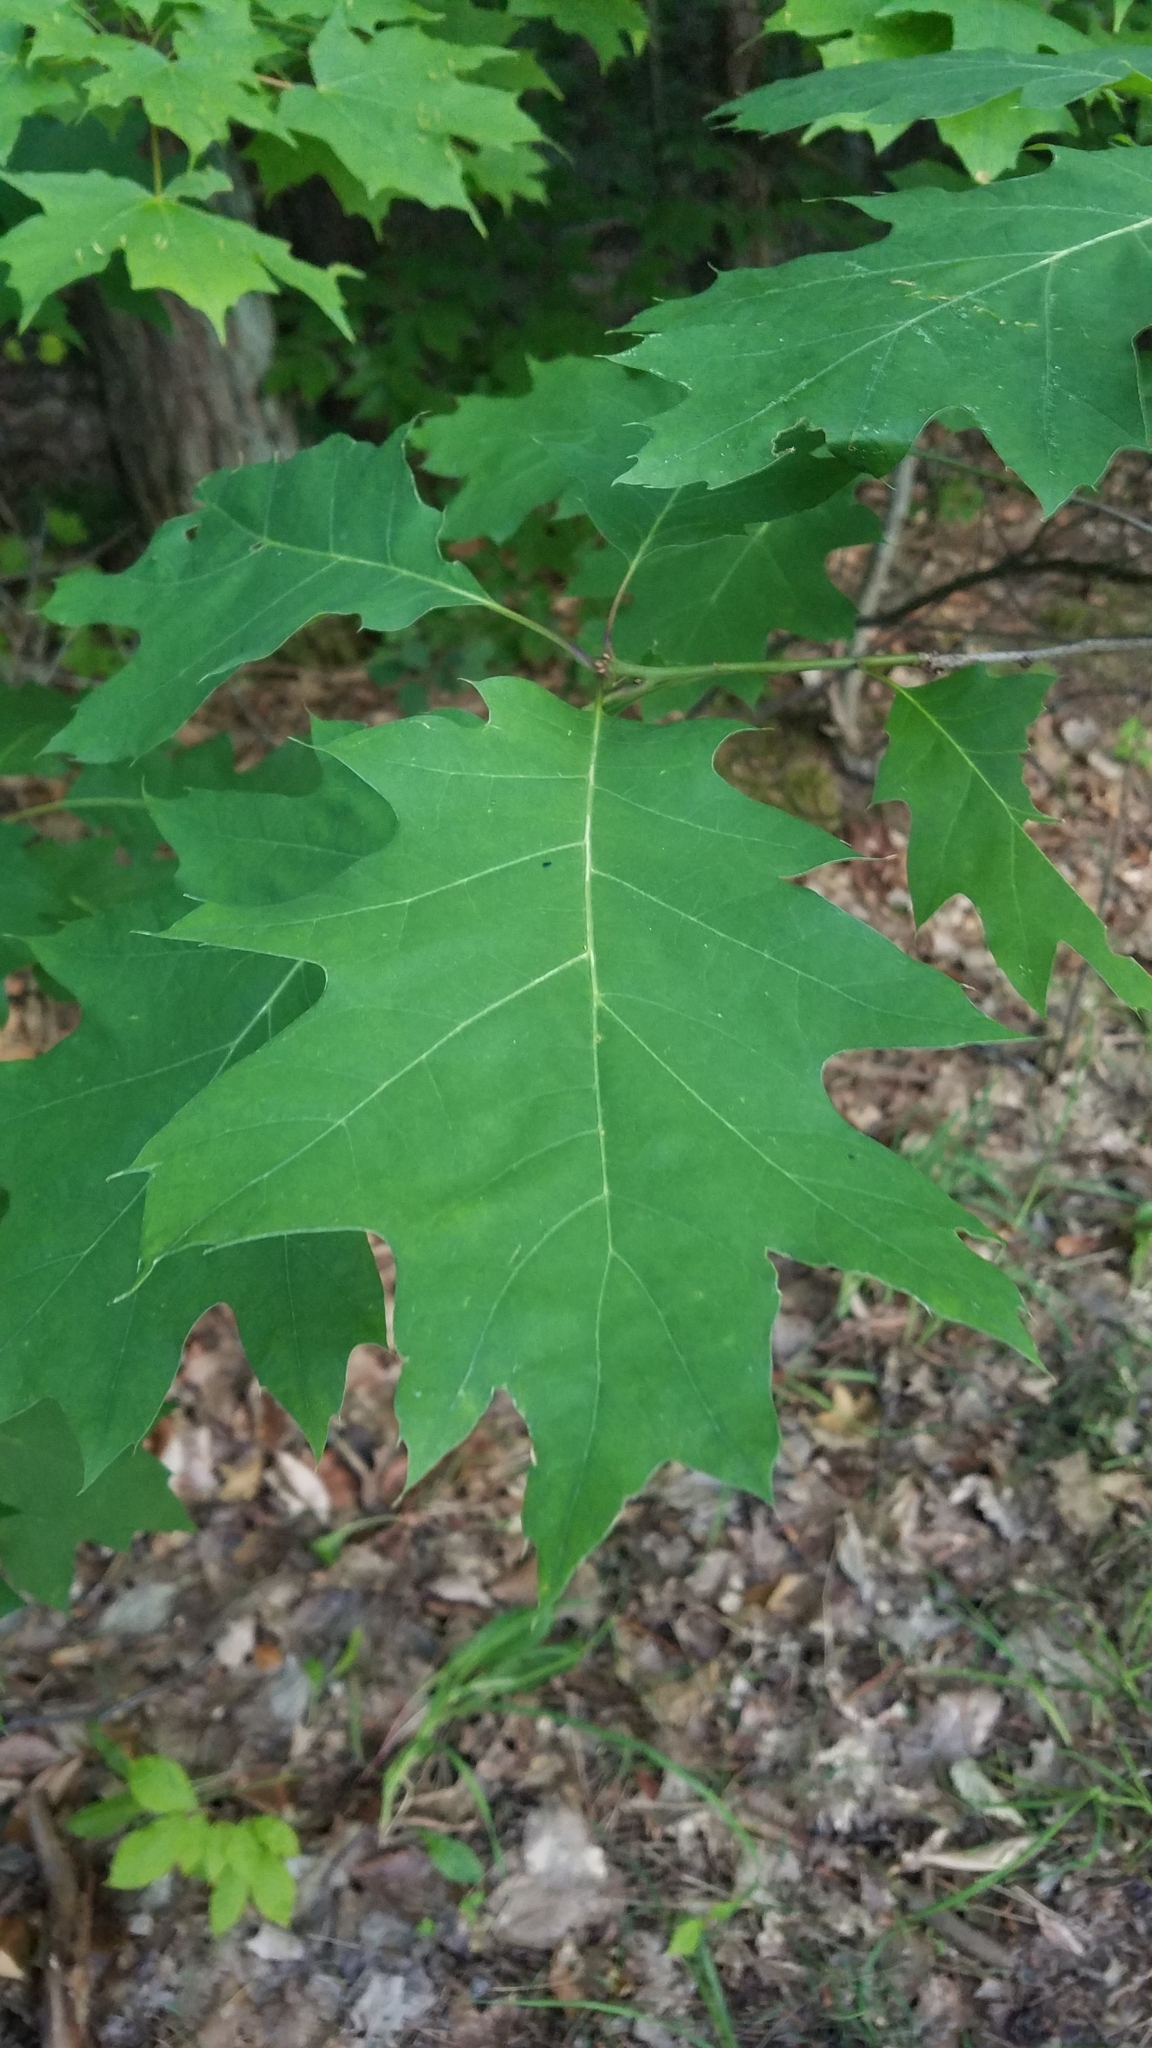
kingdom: Plantae
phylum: Tracheophyta
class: Magnoliopsida
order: Fagales
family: Fagaceae
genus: Quercus
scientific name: Quercus rubra
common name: Red oak
